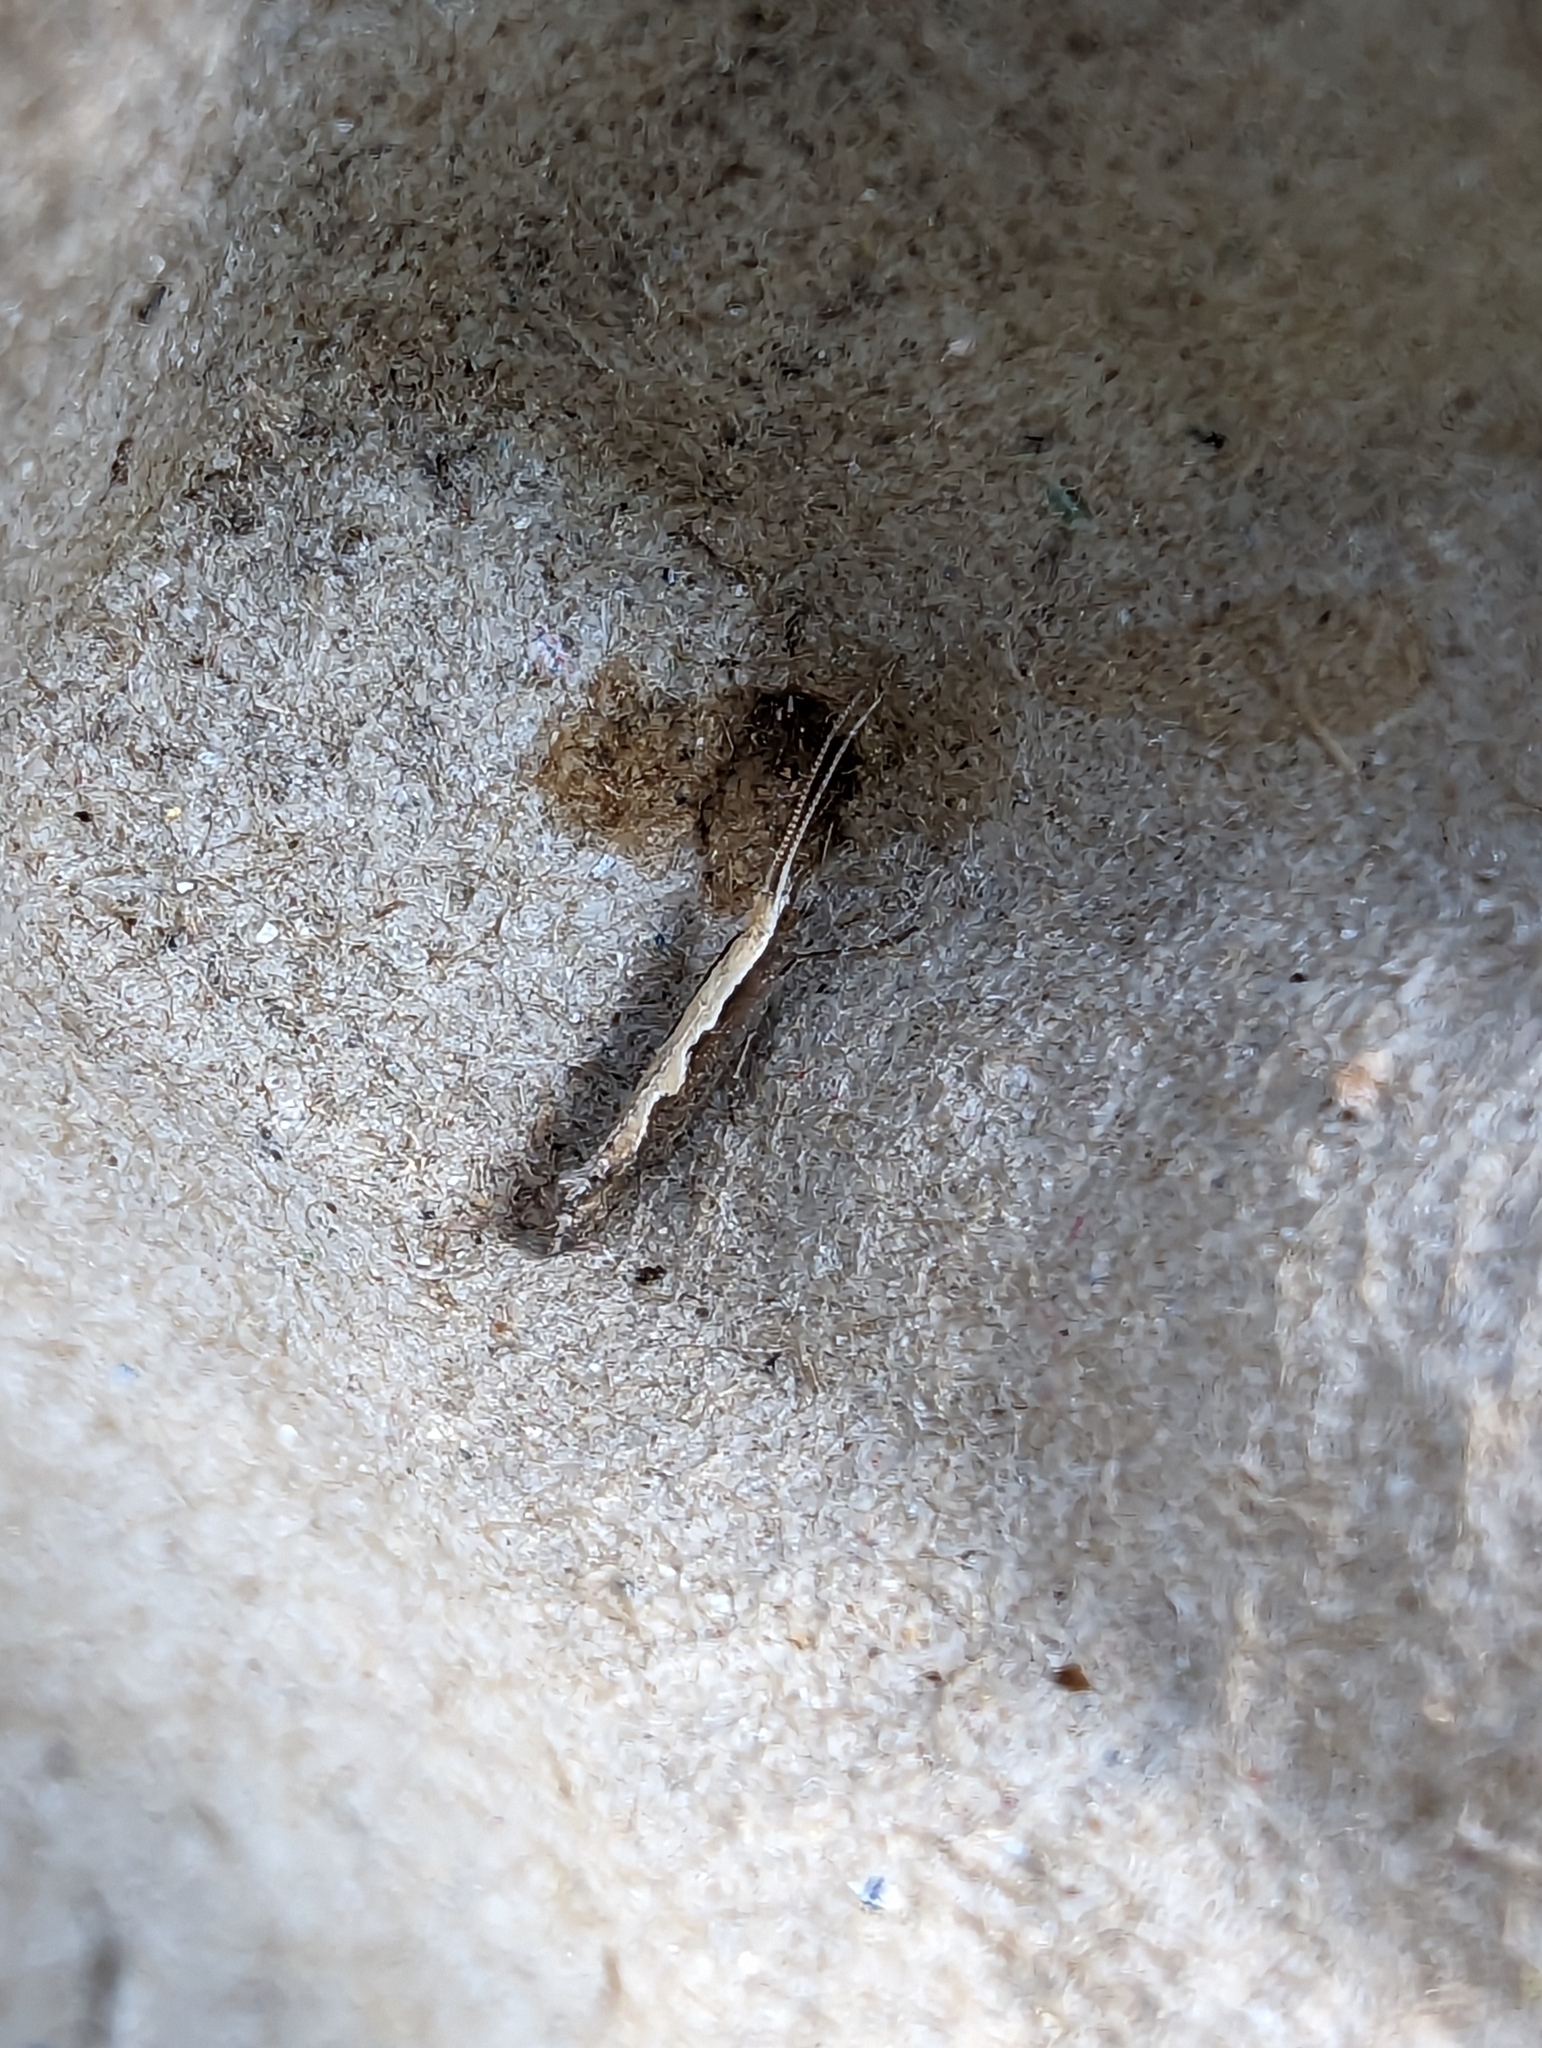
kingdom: Animalia
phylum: Arthropoda
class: Insecta
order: Lepidoptera
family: Plutellidae
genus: Plutella
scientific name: Plutella xylostella
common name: Diamond-back moth
